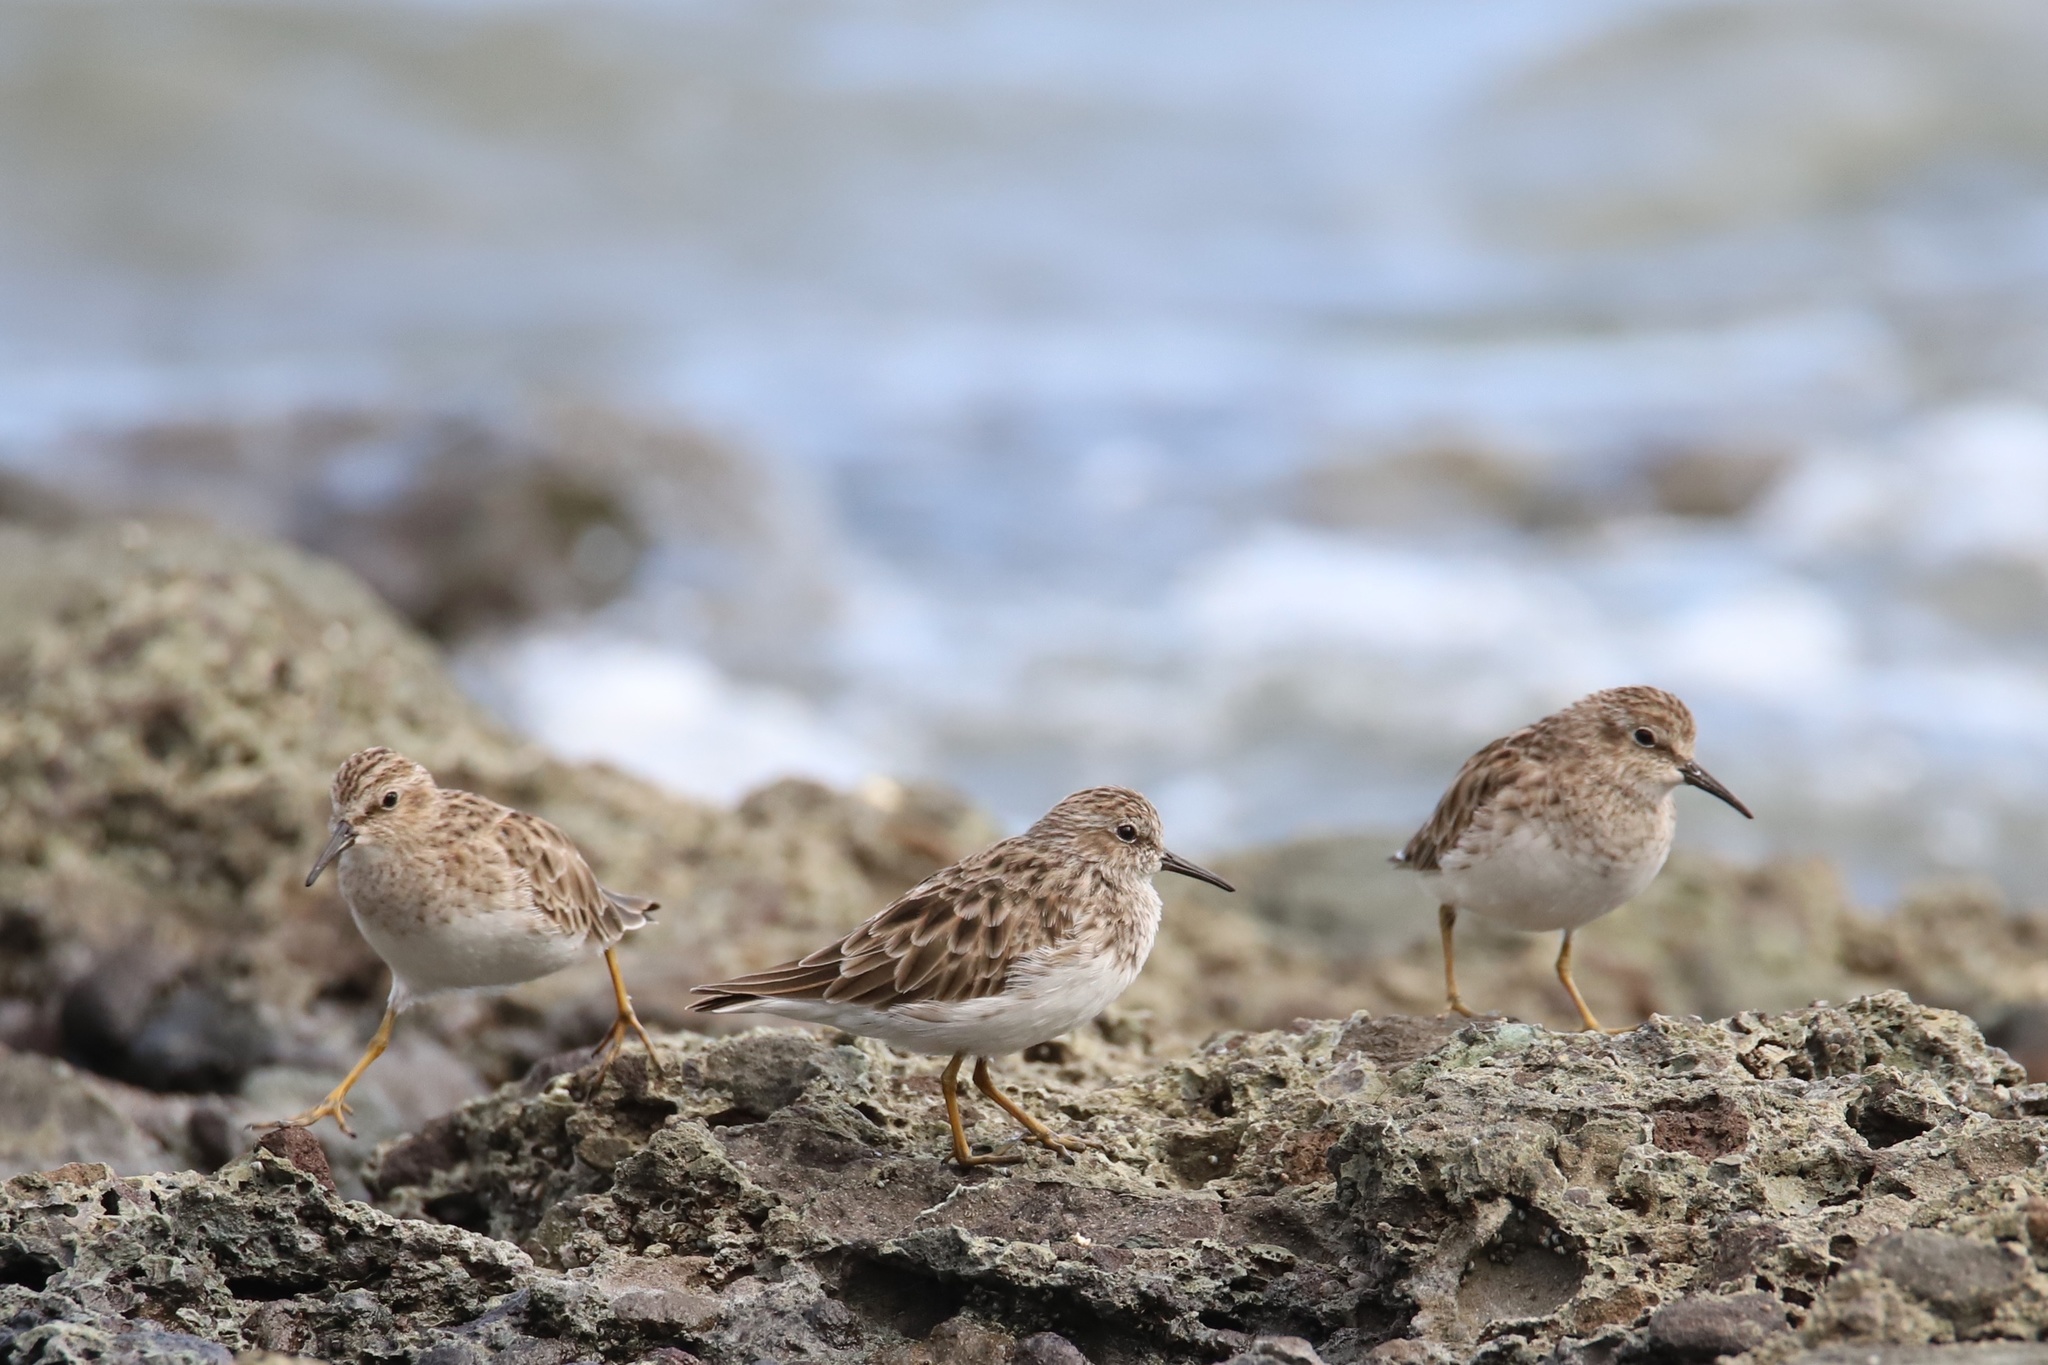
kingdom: Animalia
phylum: Chordata
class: Aves
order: Charadriiformes
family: Scolopacidae
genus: Calidris
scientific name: Calidris minutilla
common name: Least sandpiper
